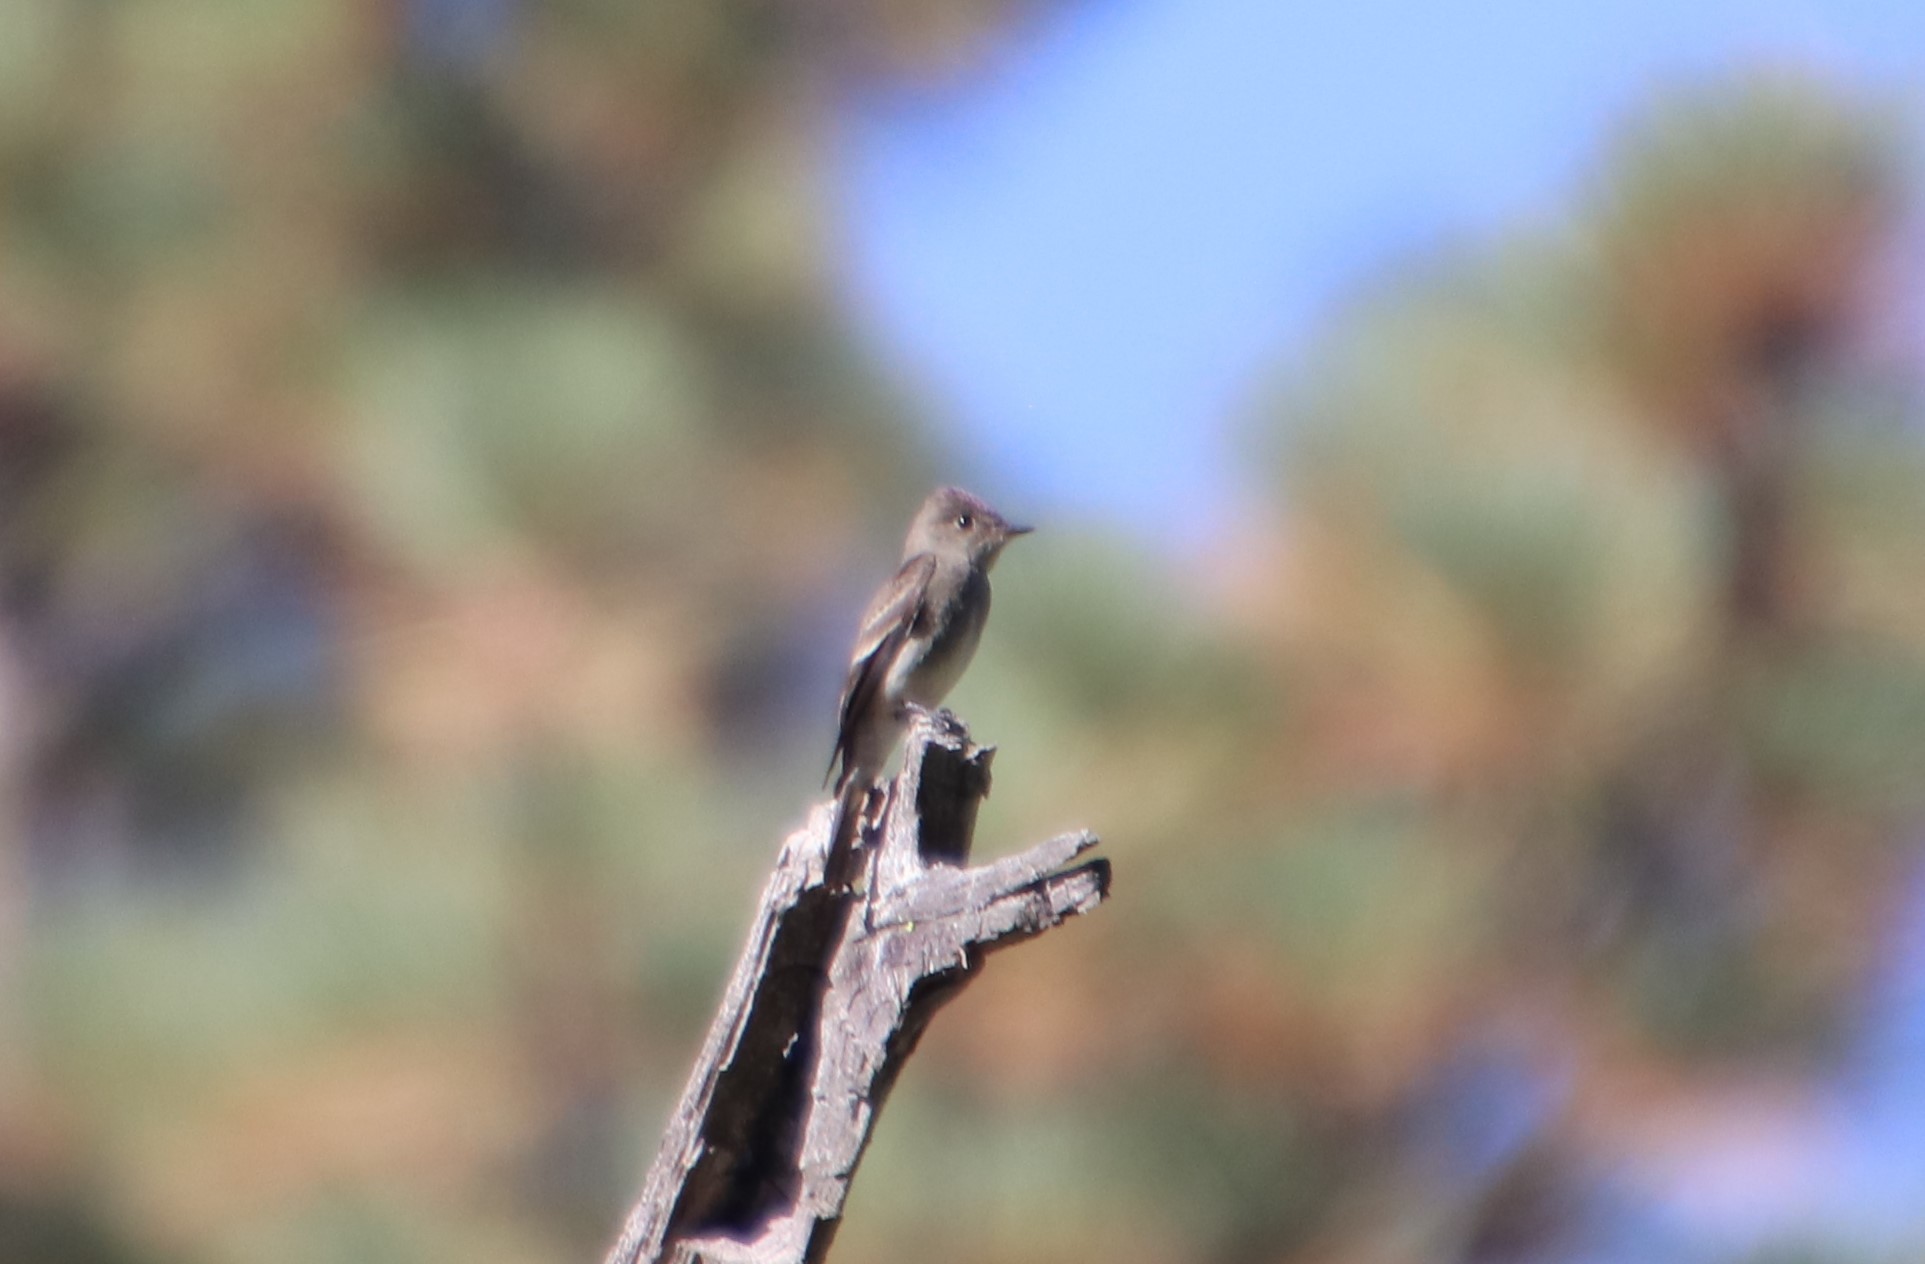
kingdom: Animalia
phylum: Chordata
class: Aves
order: Passeriformes
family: Tyrannidae
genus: Contopus
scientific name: Contopus sordidulus
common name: Western wood-pewee
